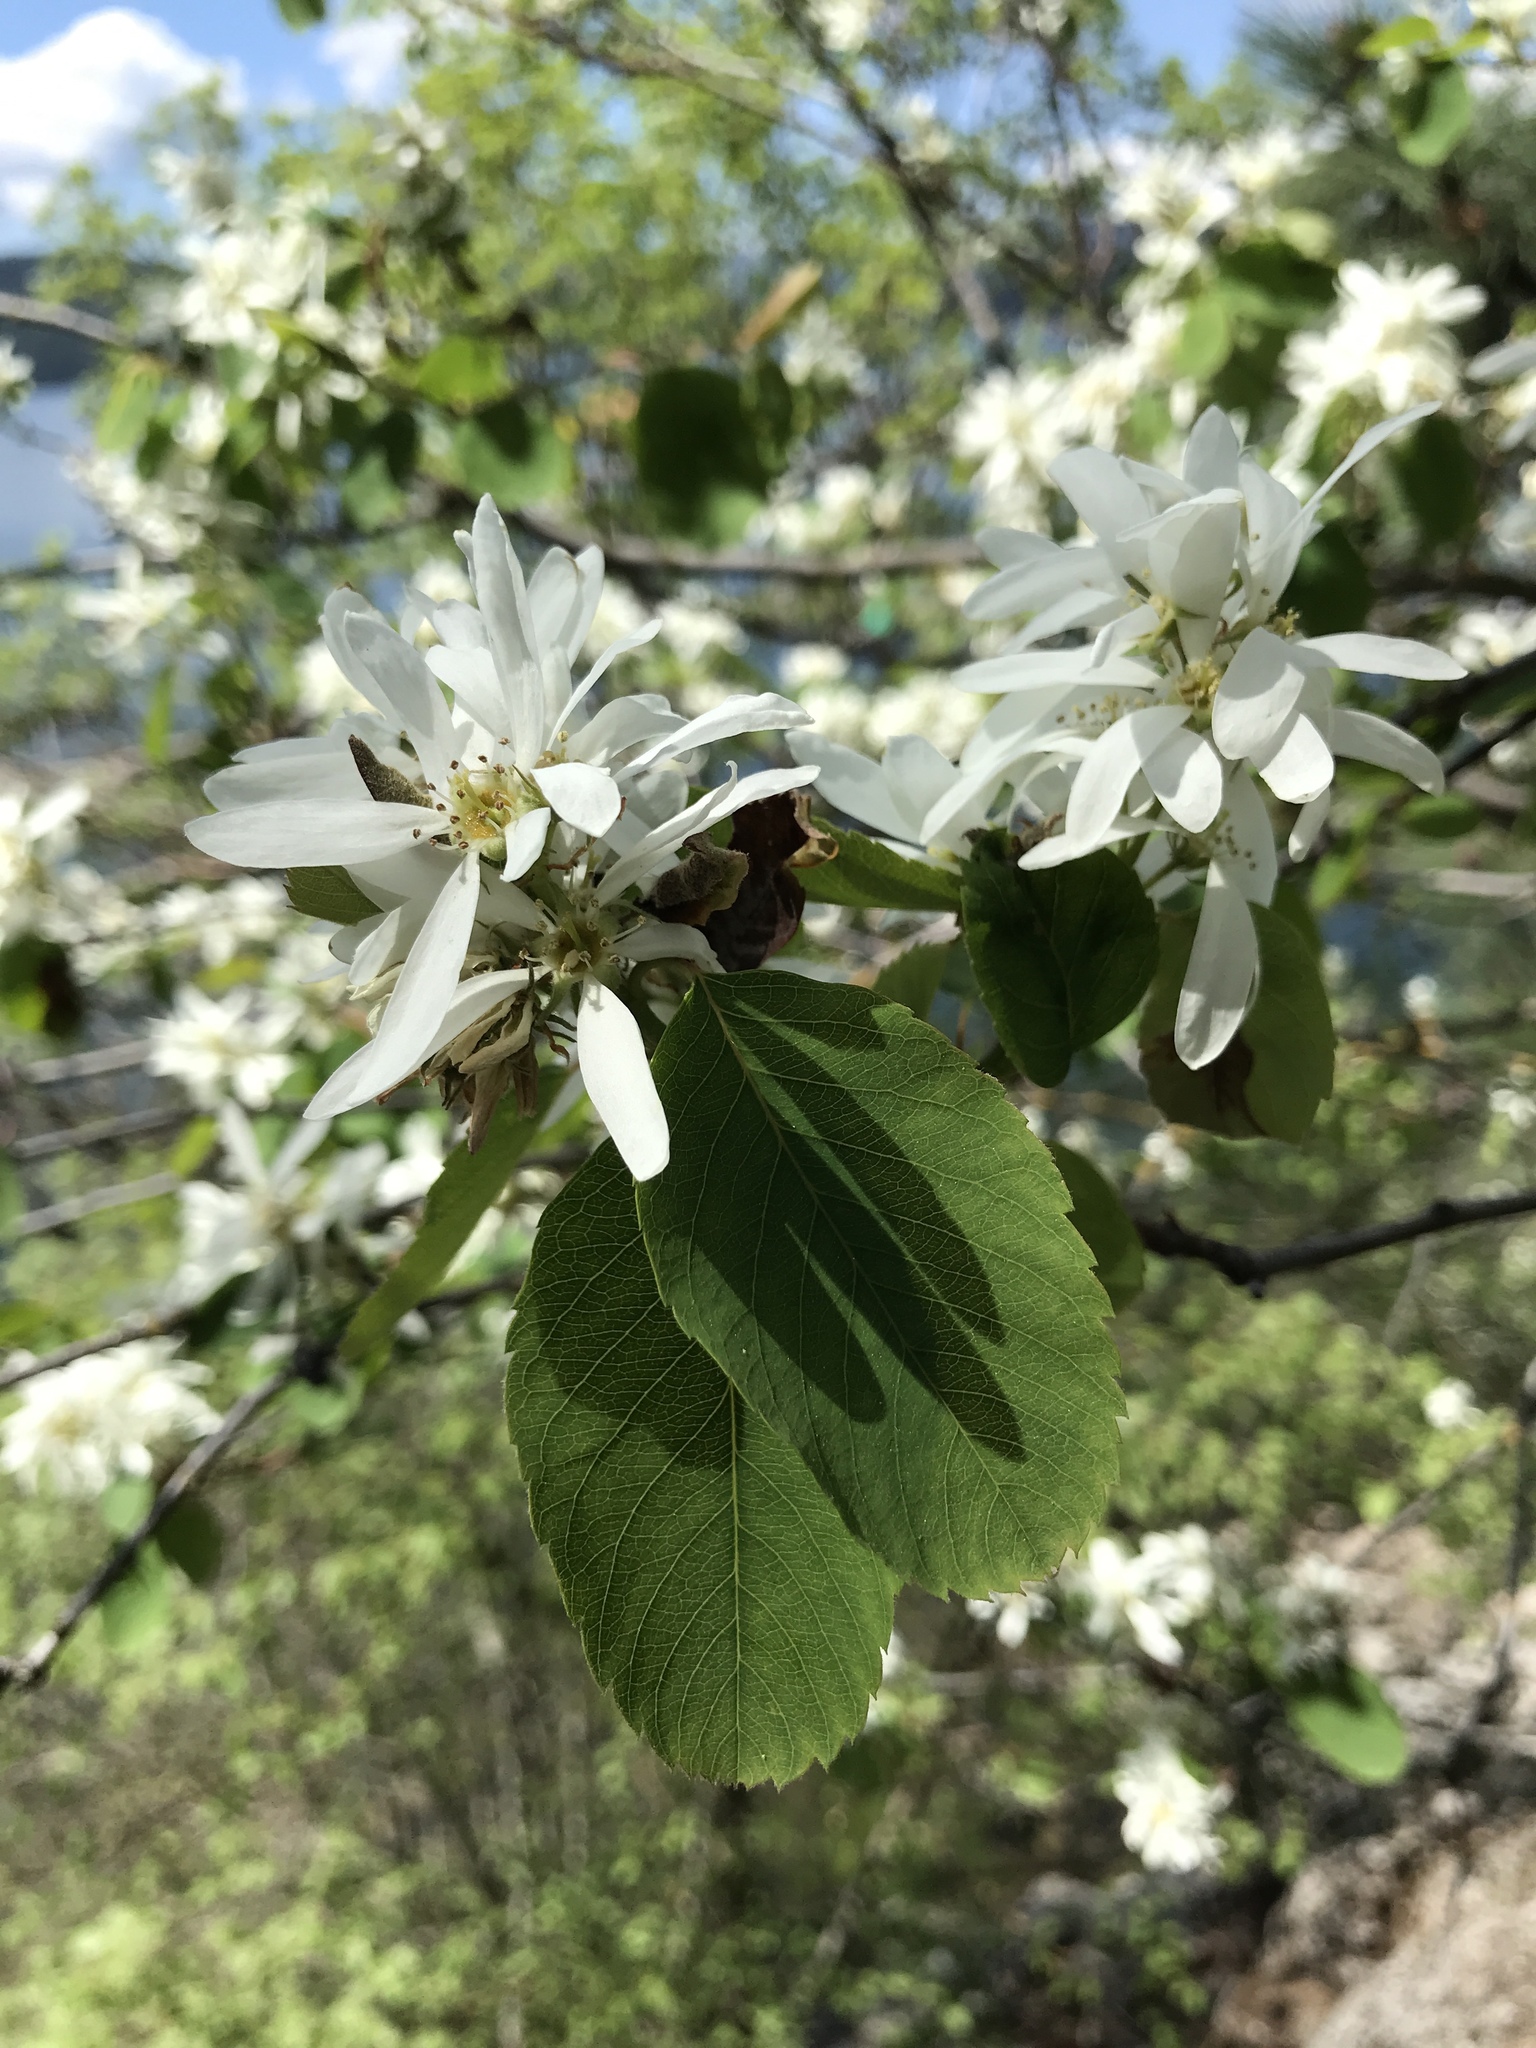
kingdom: Plantae
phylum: Tracheophyta
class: Magnoliopsida
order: Rosales
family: Rosaceae
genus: Amelanchier
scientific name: Amelanchier alnifolia
